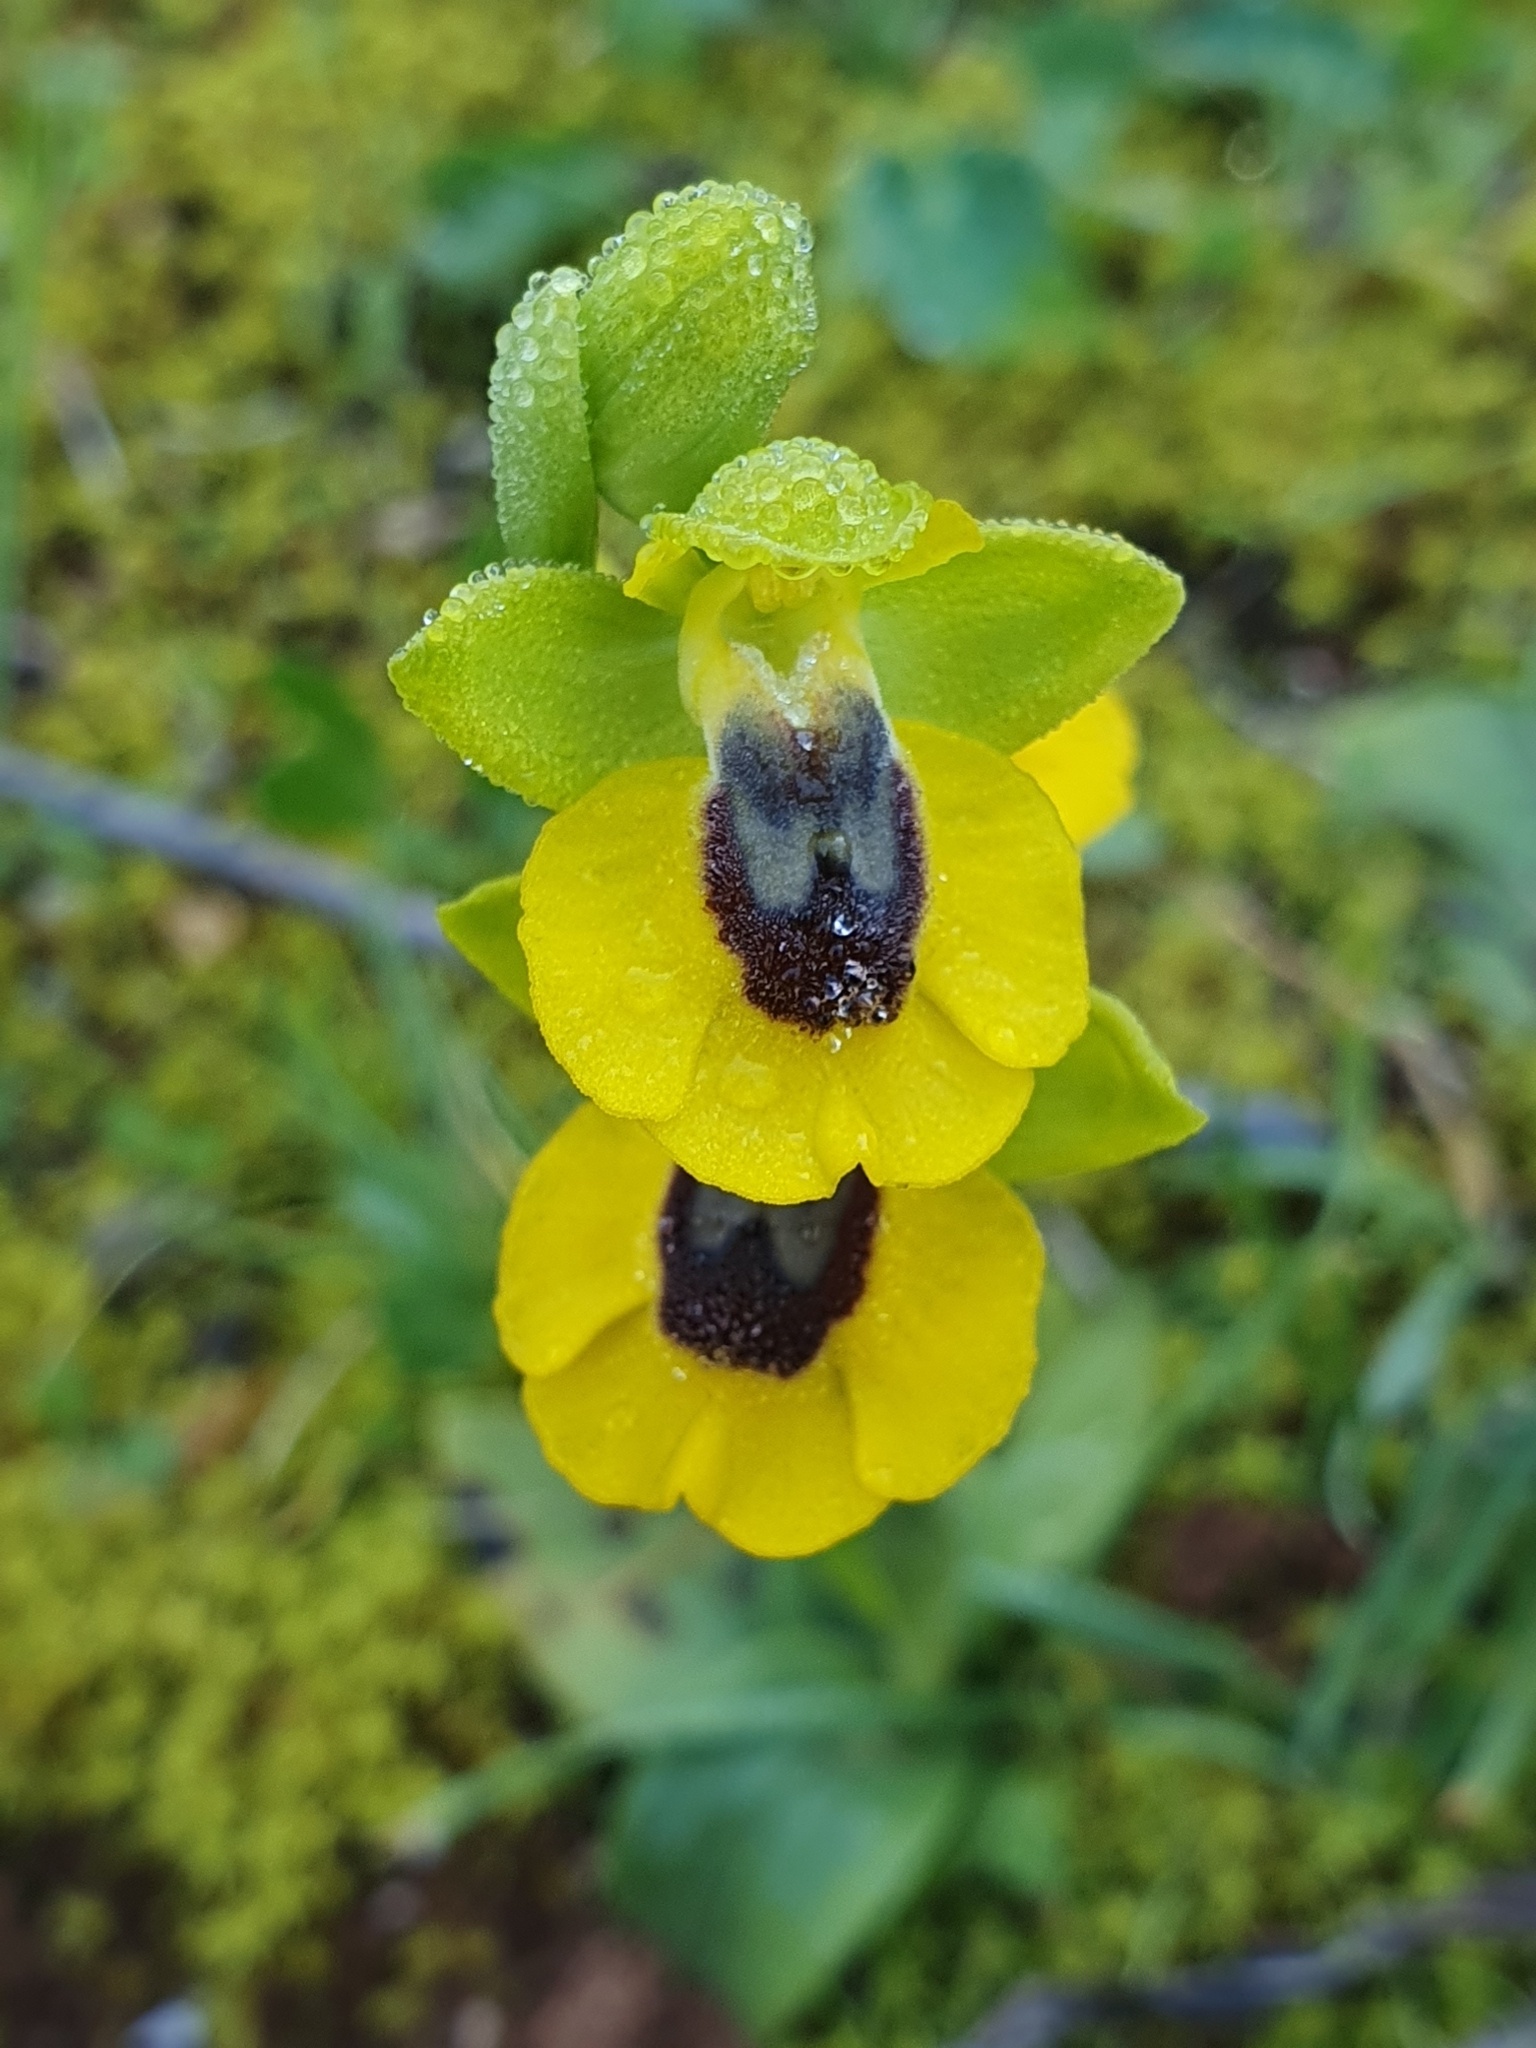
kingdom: Plantae
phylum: Tracheophyta
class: Liliopsida
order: Asparagales
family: Orchidaceae
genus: Ophrys
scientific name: Ophrys lutea
